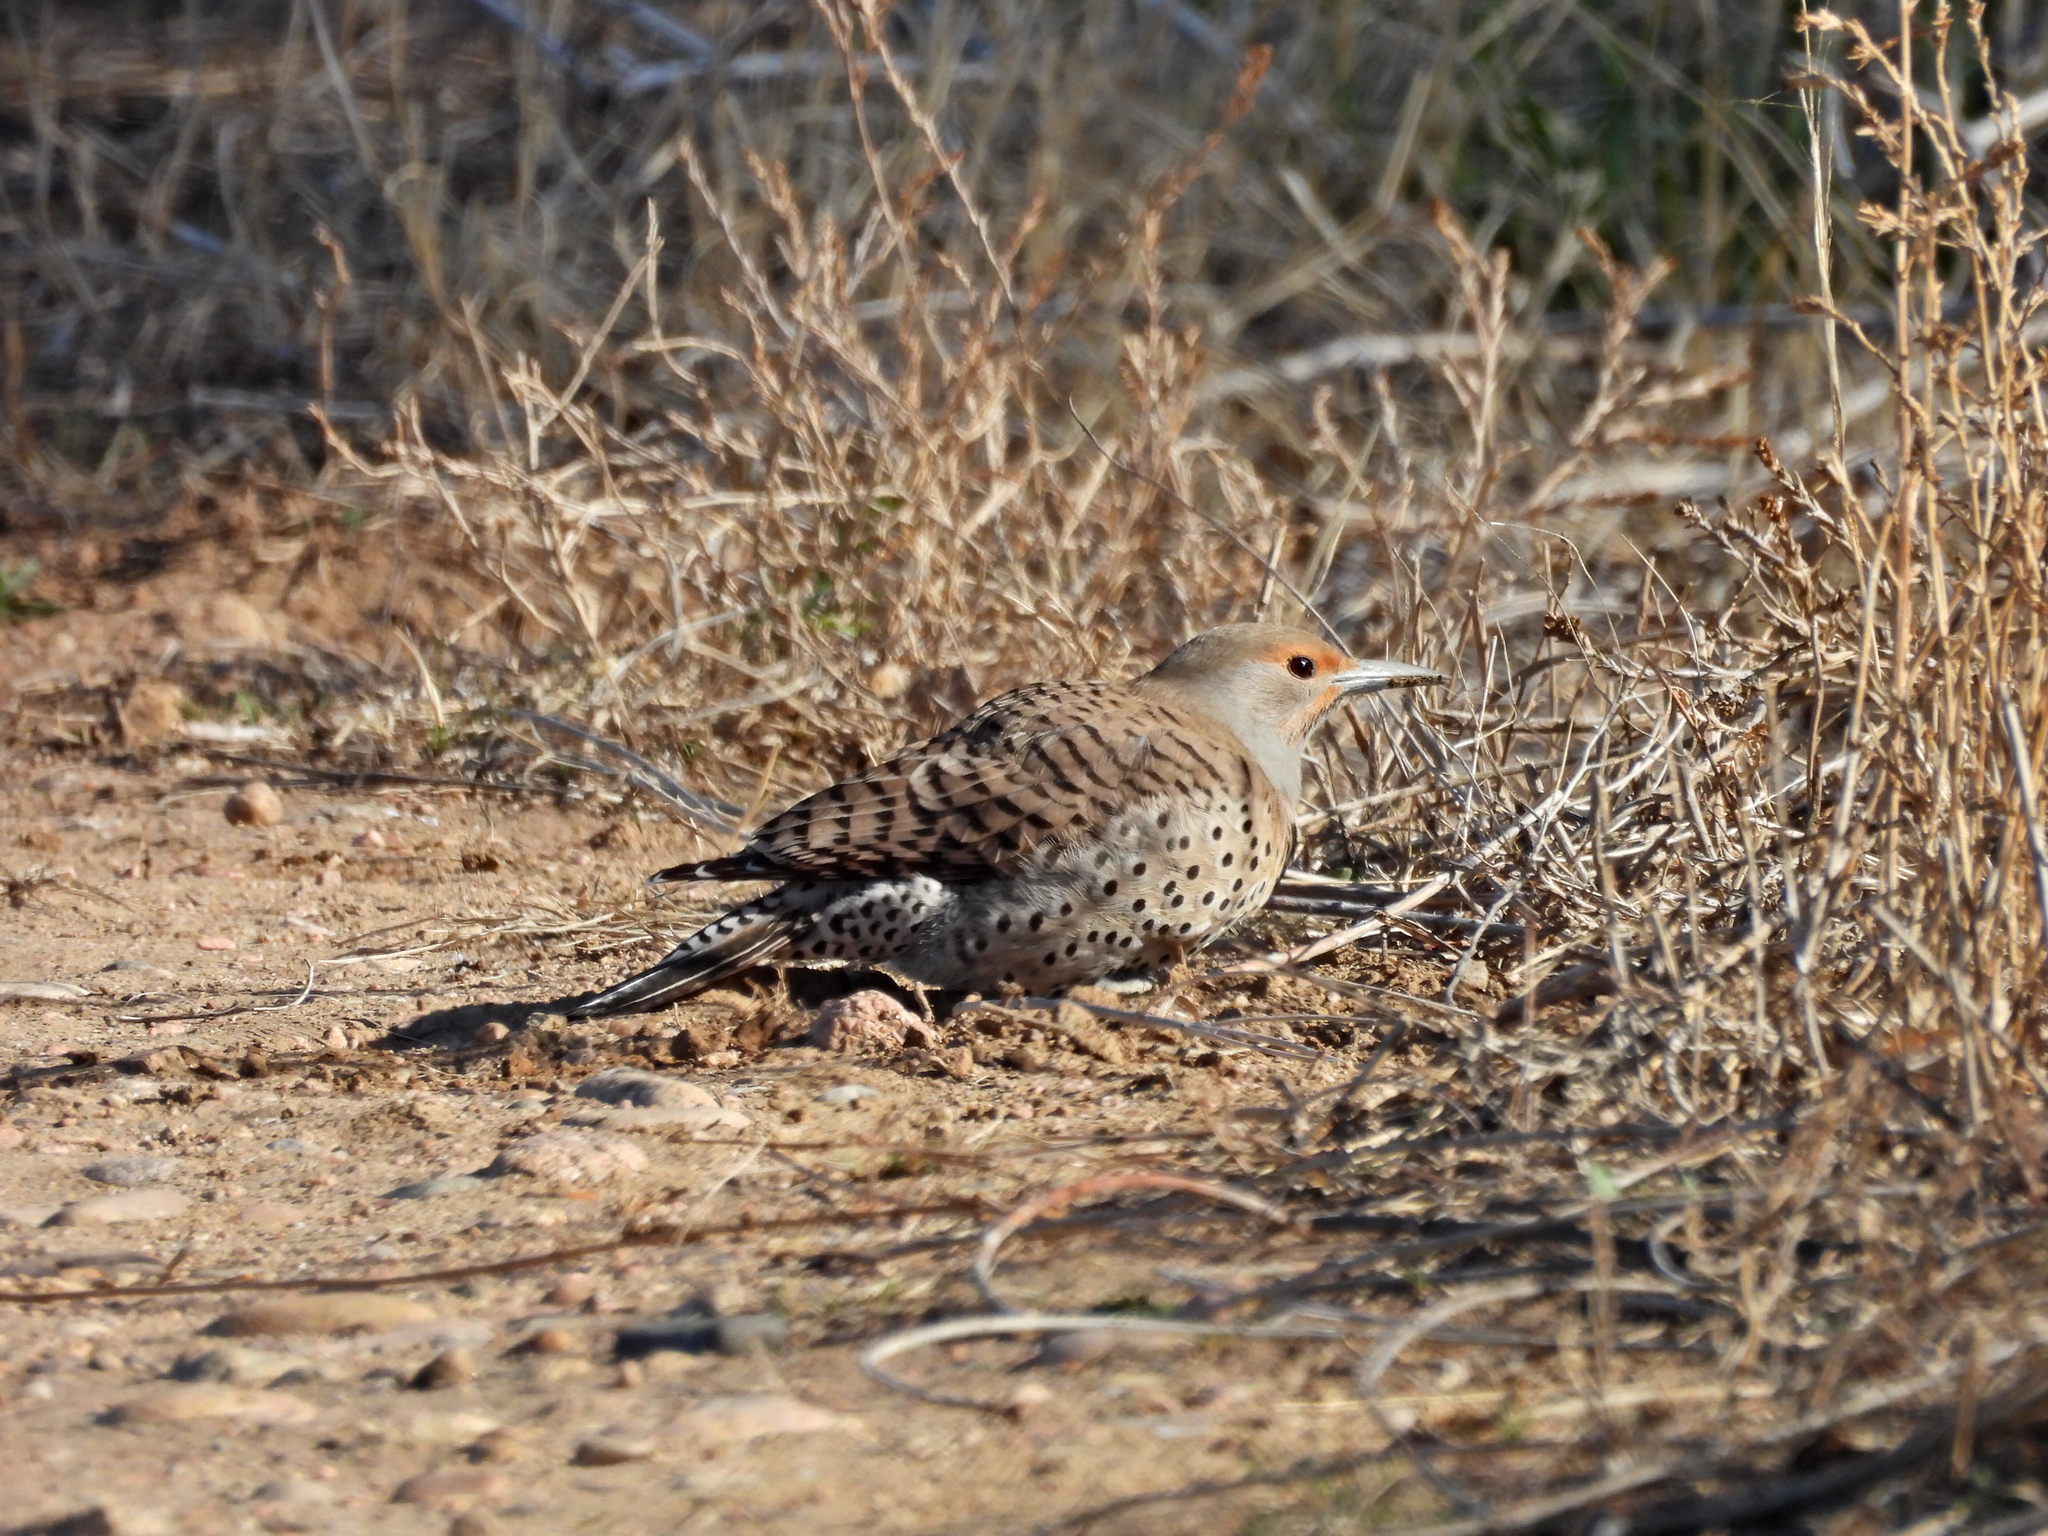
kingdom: Animalia
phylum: Chordata
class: Aves
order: Piciformes
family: Picidae
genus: Colaptes
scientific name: Colaptes auratus
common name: Northern flicker
